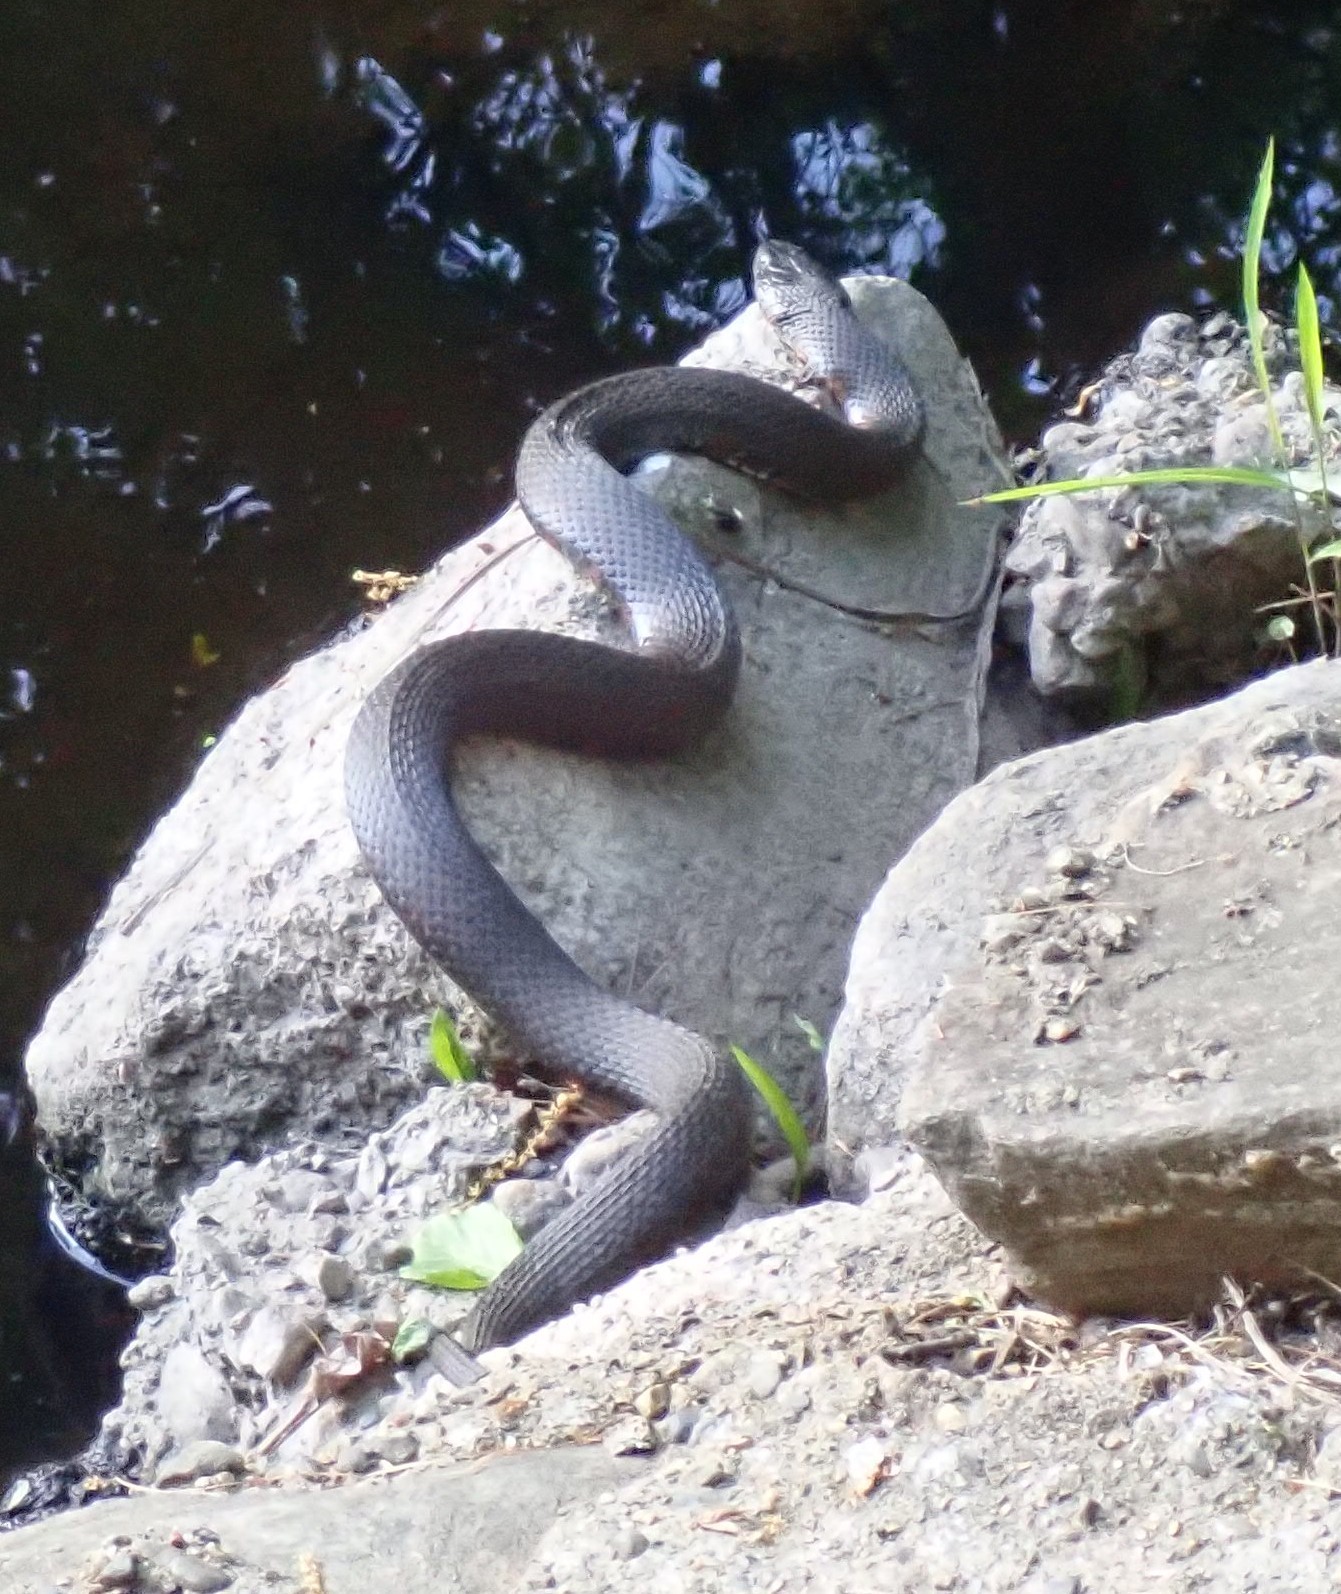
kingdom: Animalia
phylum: Chordata
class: Squamata
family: Colubridae
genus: Nerodia
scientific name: Nerodia sipedon
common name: Northern water snake
